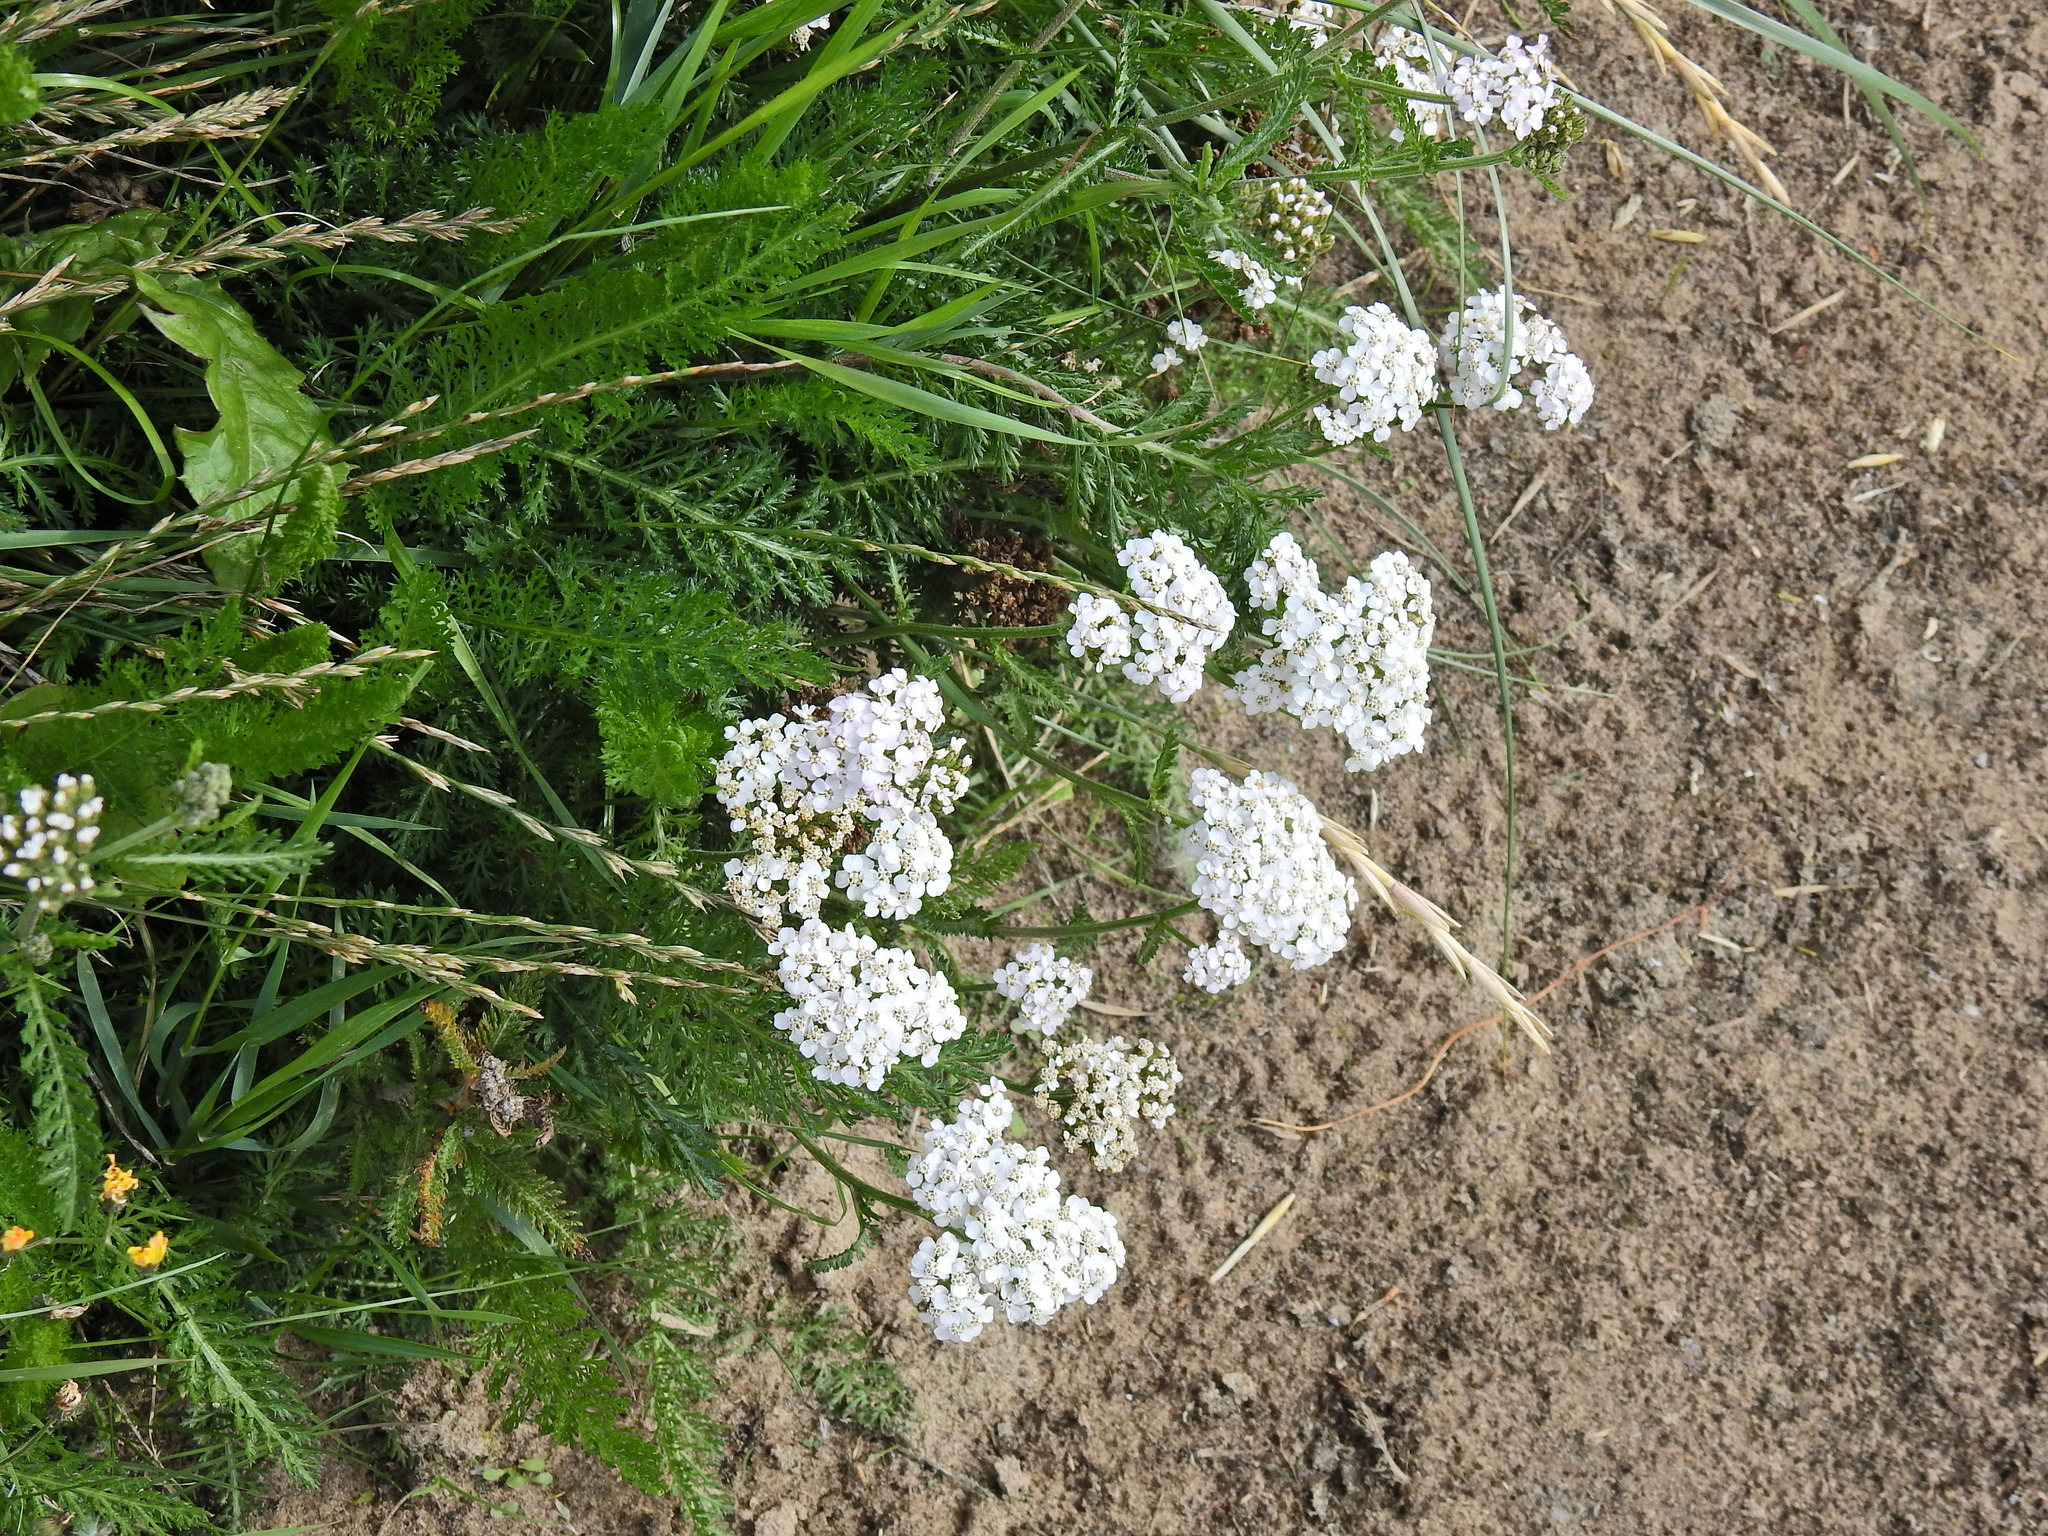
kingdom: Plantae
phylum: Tracheophyta
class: Magnoliopsida
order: Asterales
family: Asteraceae
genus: Achillea
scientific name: Achillea millefolium
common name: Yarrow
